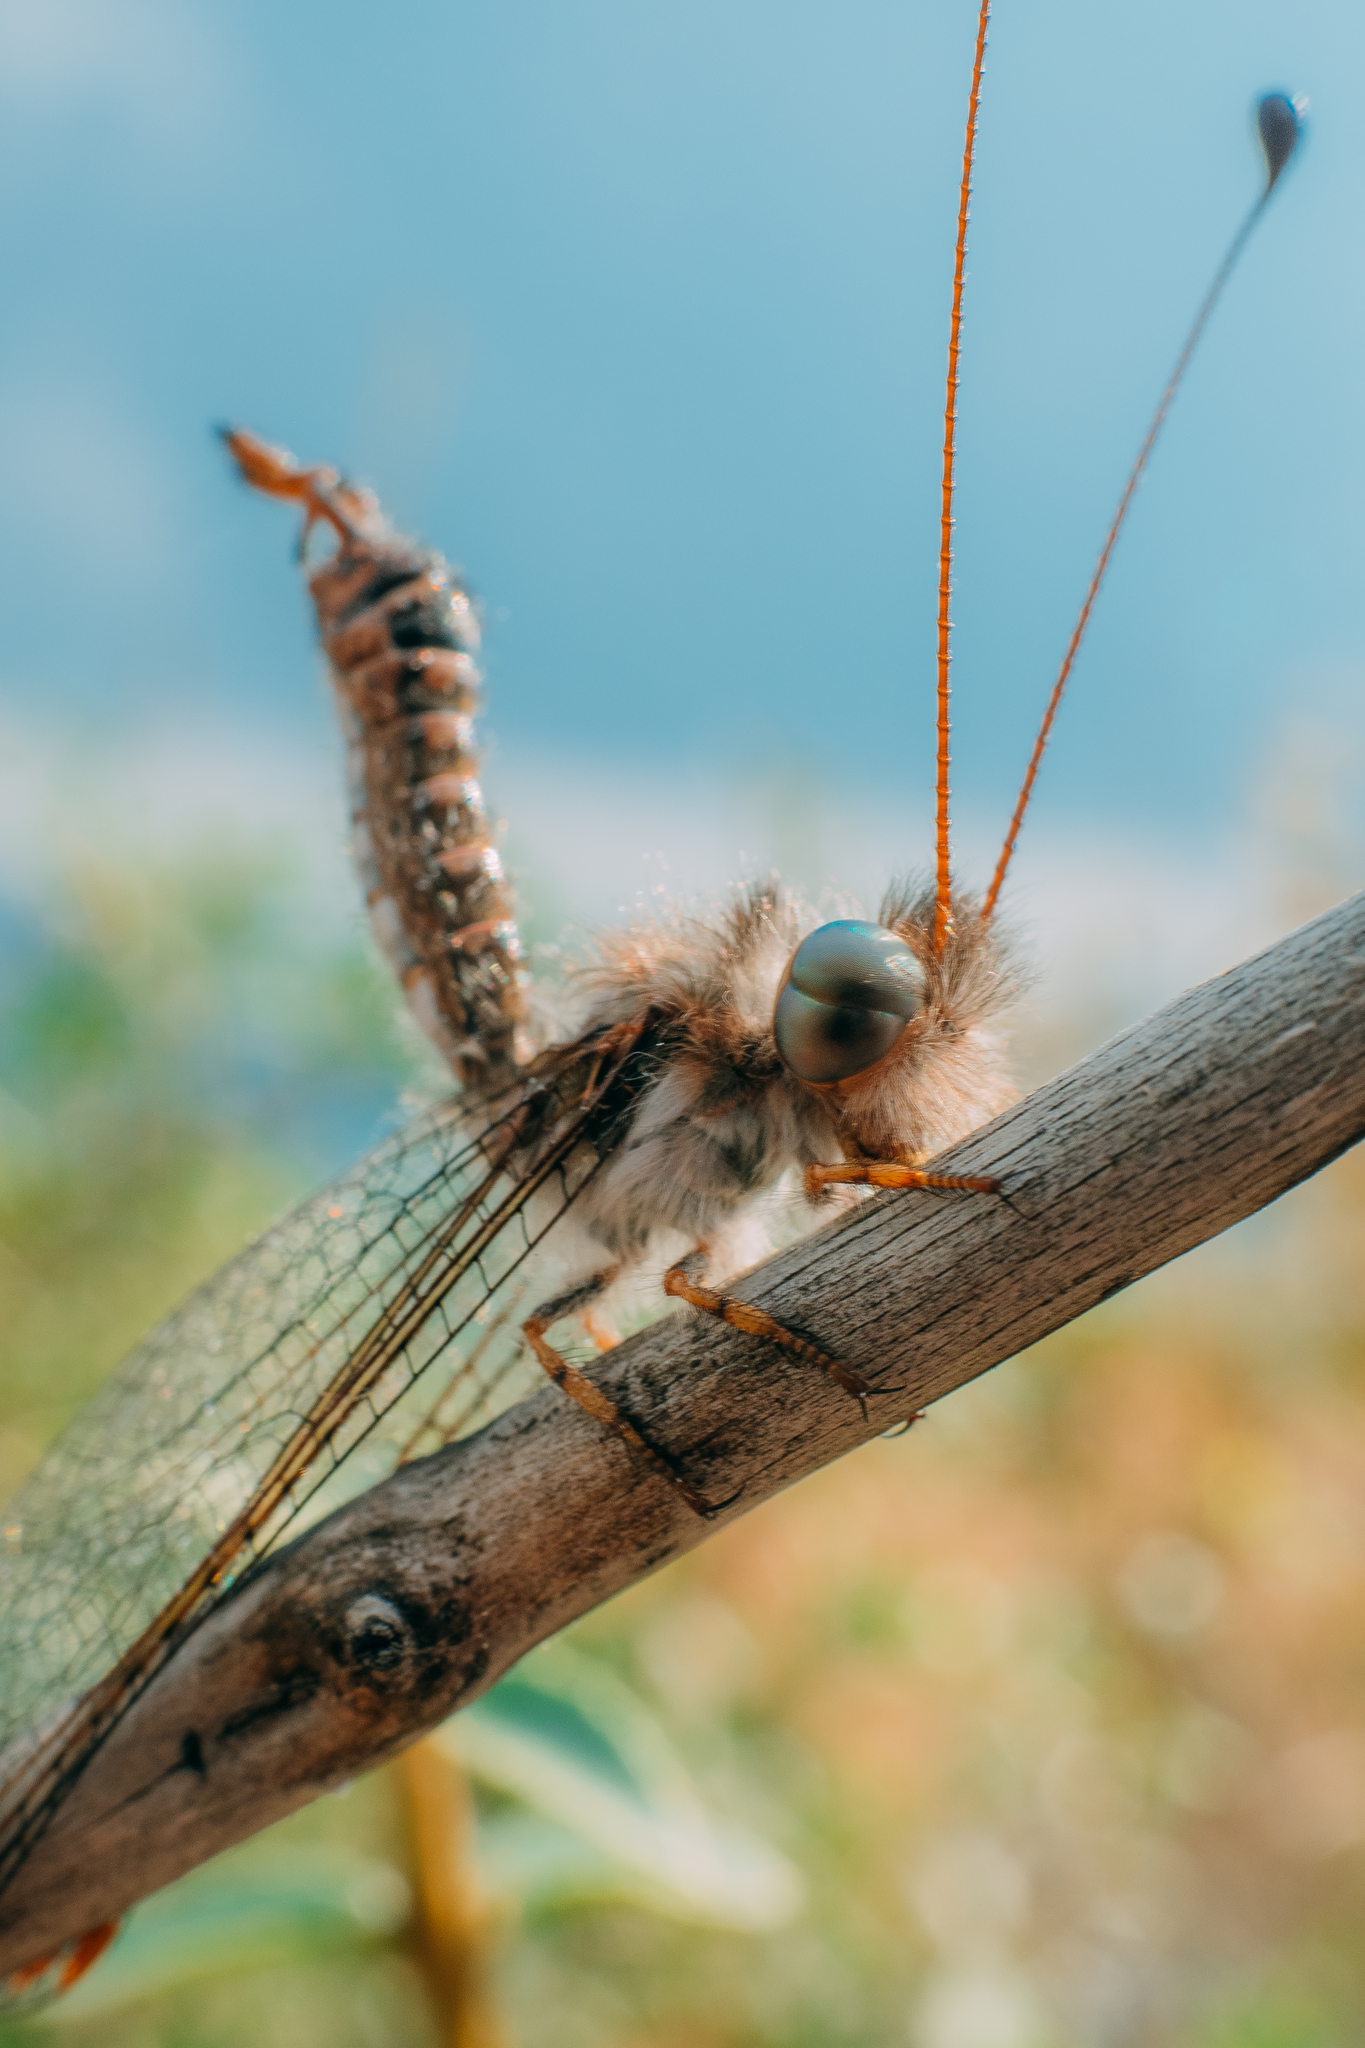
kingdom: Animalia
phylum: Arthropoda
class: Insecta
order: Neuroptera
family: Ascalaphidae
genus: Bubopsis
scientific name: Bubopsis andromache
